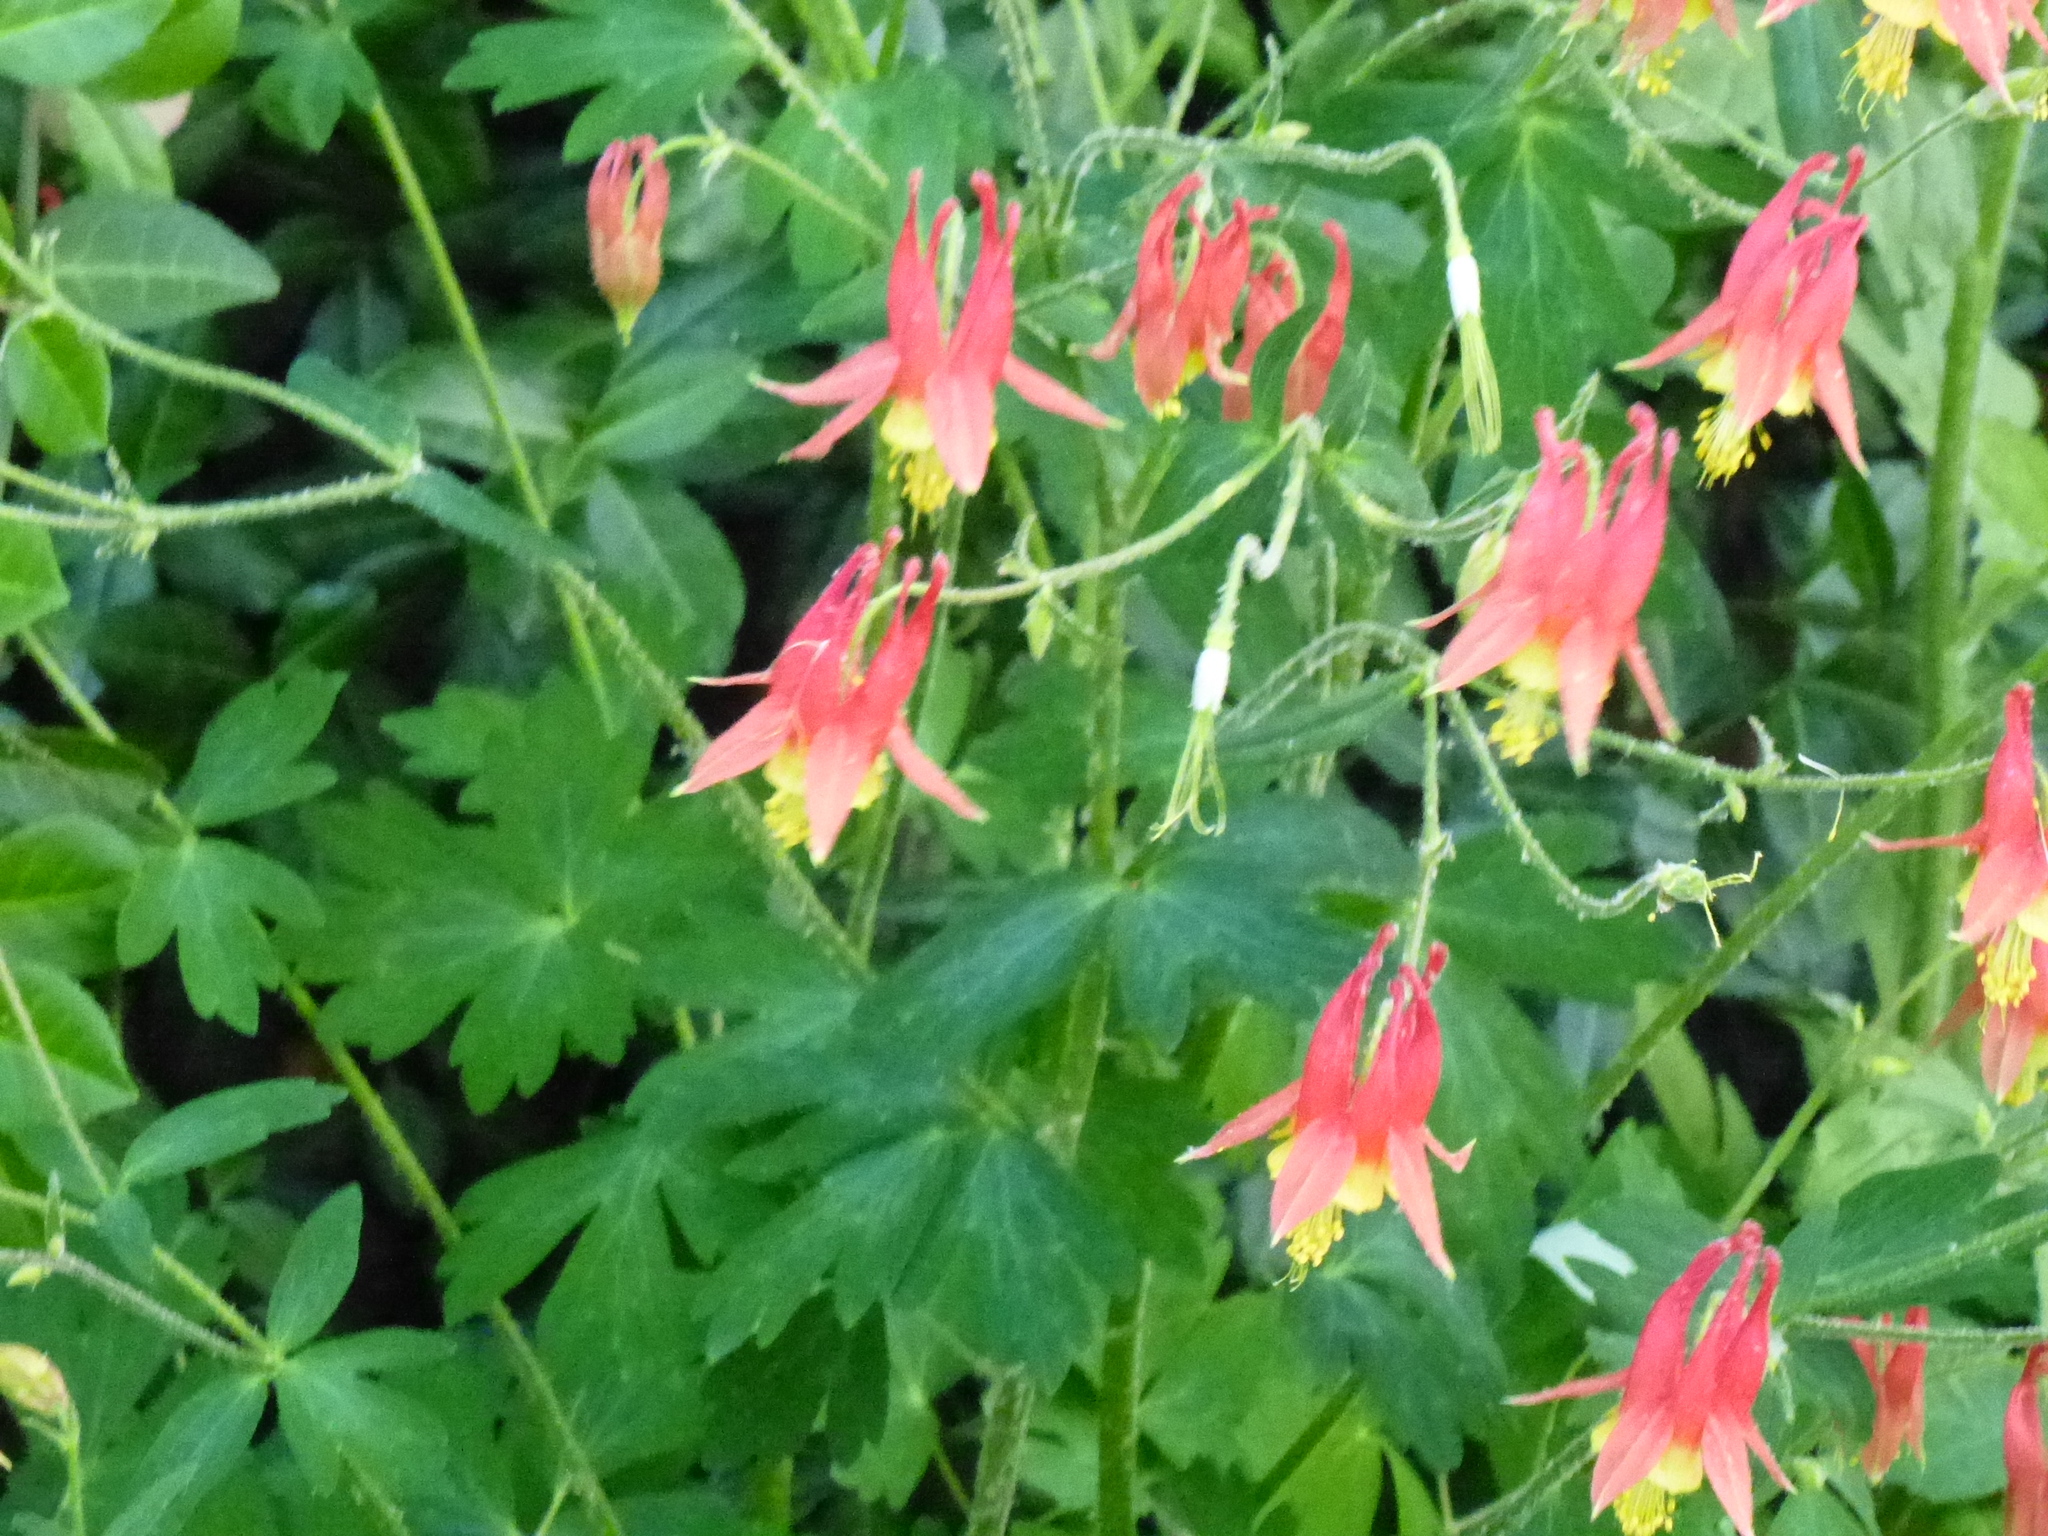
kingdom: Plantae
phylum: Tracheophyta
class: Magnoliopsida
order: Ranunculales
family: Ranunculaceae
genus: Aquilegia
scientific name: Aquilegia canadensis
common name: American columbine
